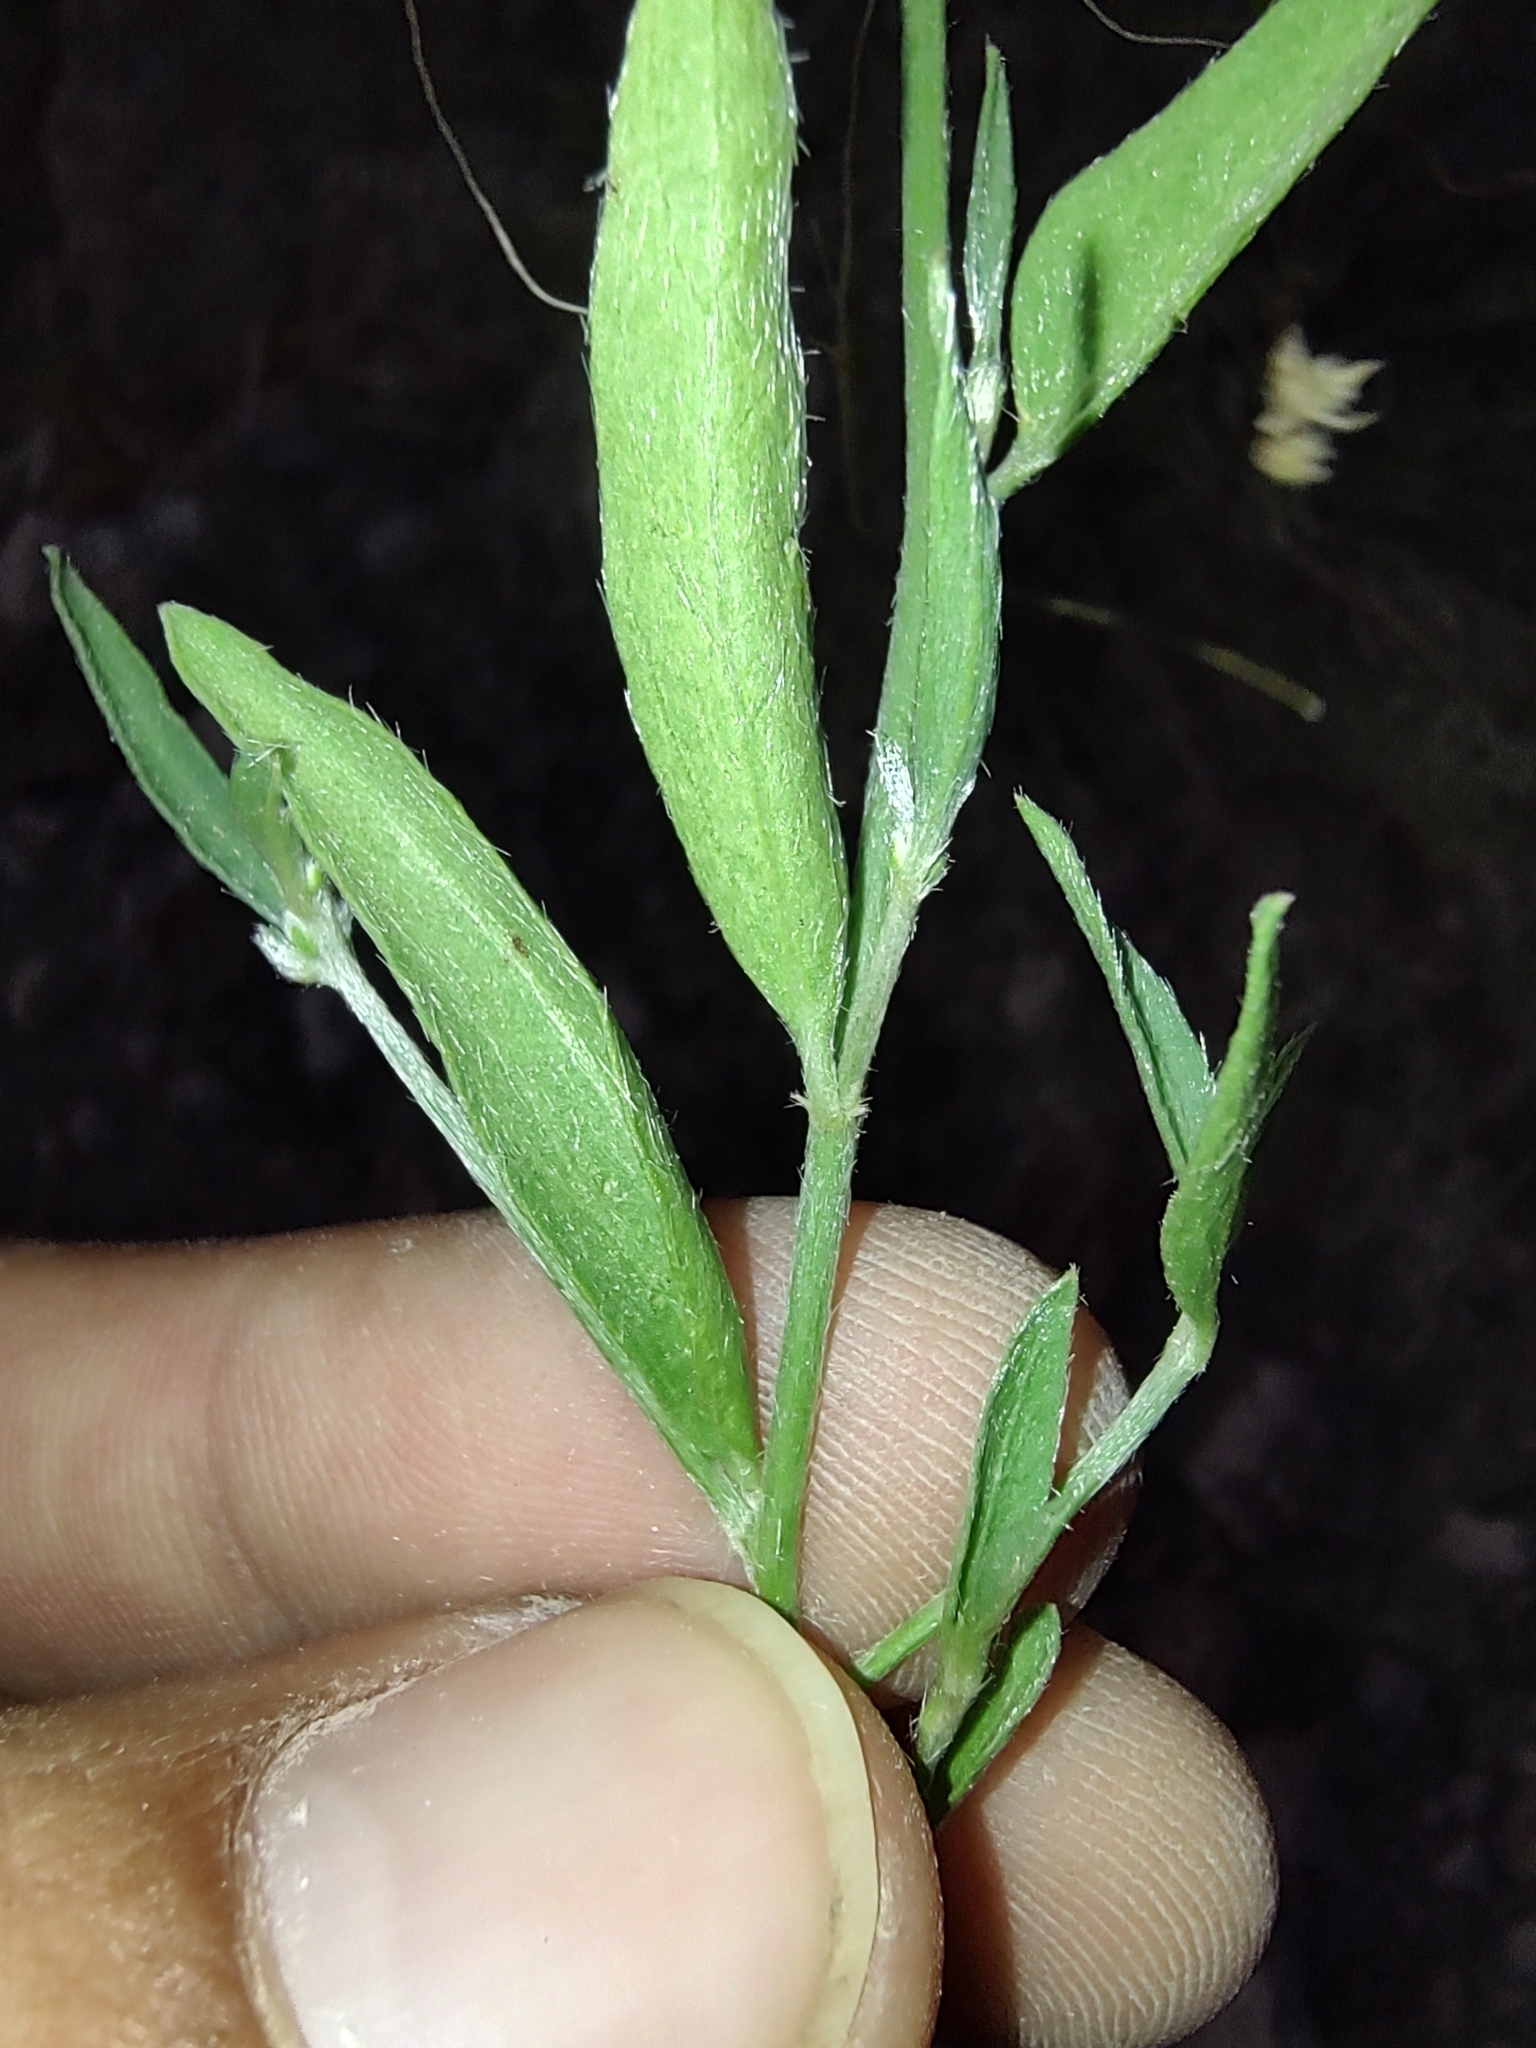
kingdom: Plantae
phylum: Tracheophyta
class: Magnoliopsida
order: Malpighiales
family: Euphorbiaceae
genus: Ditaxis
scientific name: Ditaxis lanceolata
